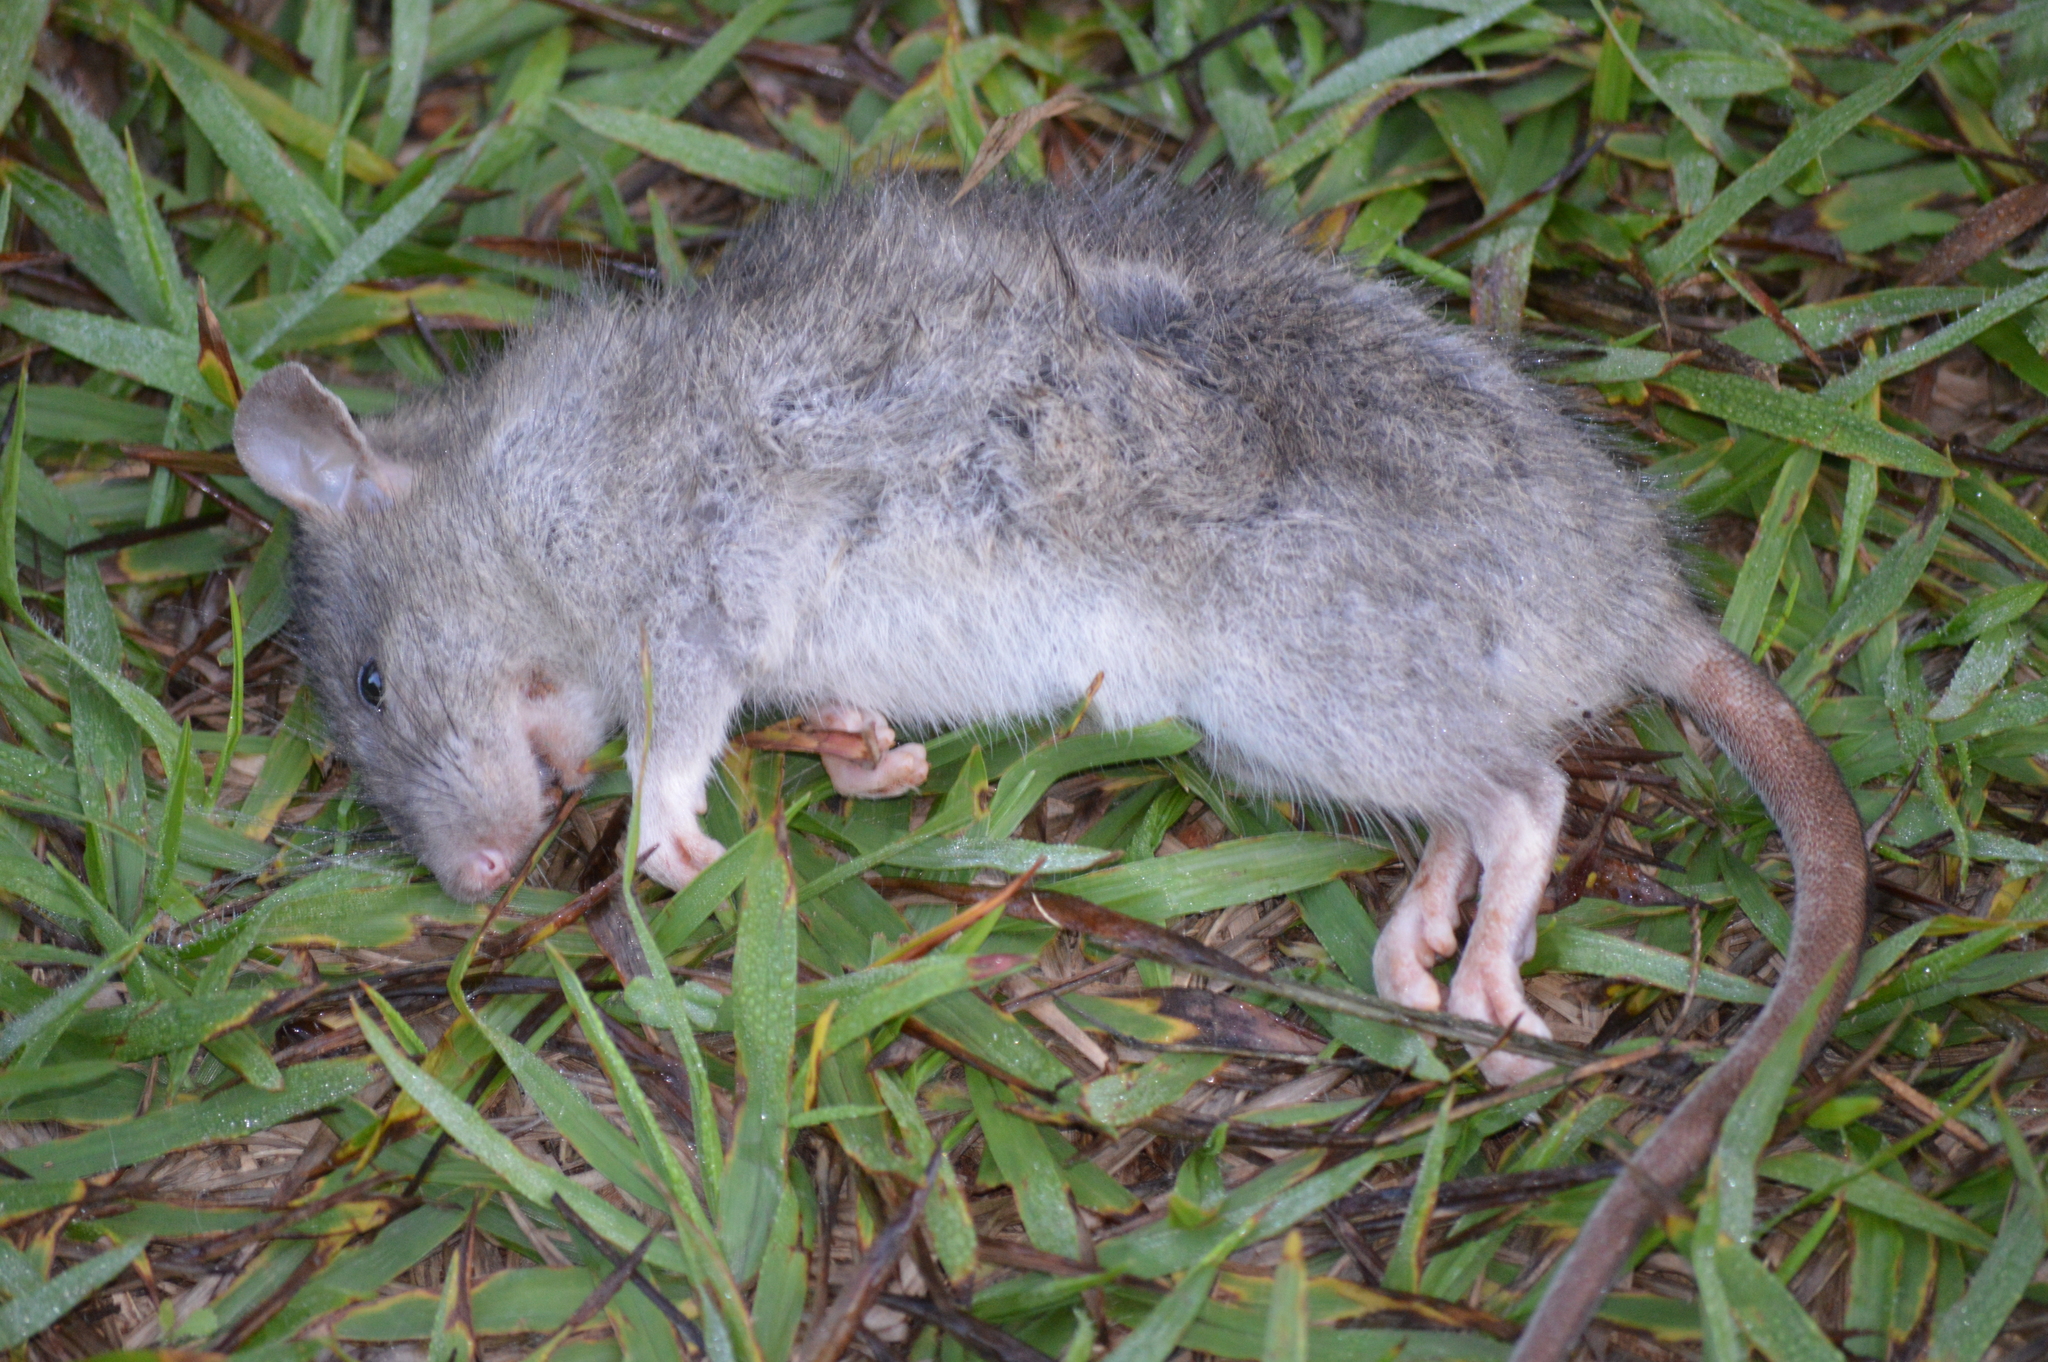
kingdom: Animalia
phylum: Chordata
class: Mammalia
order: Rodentia
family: Muridae
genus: Rattus
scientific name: Rattus rattus
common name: Black rat
